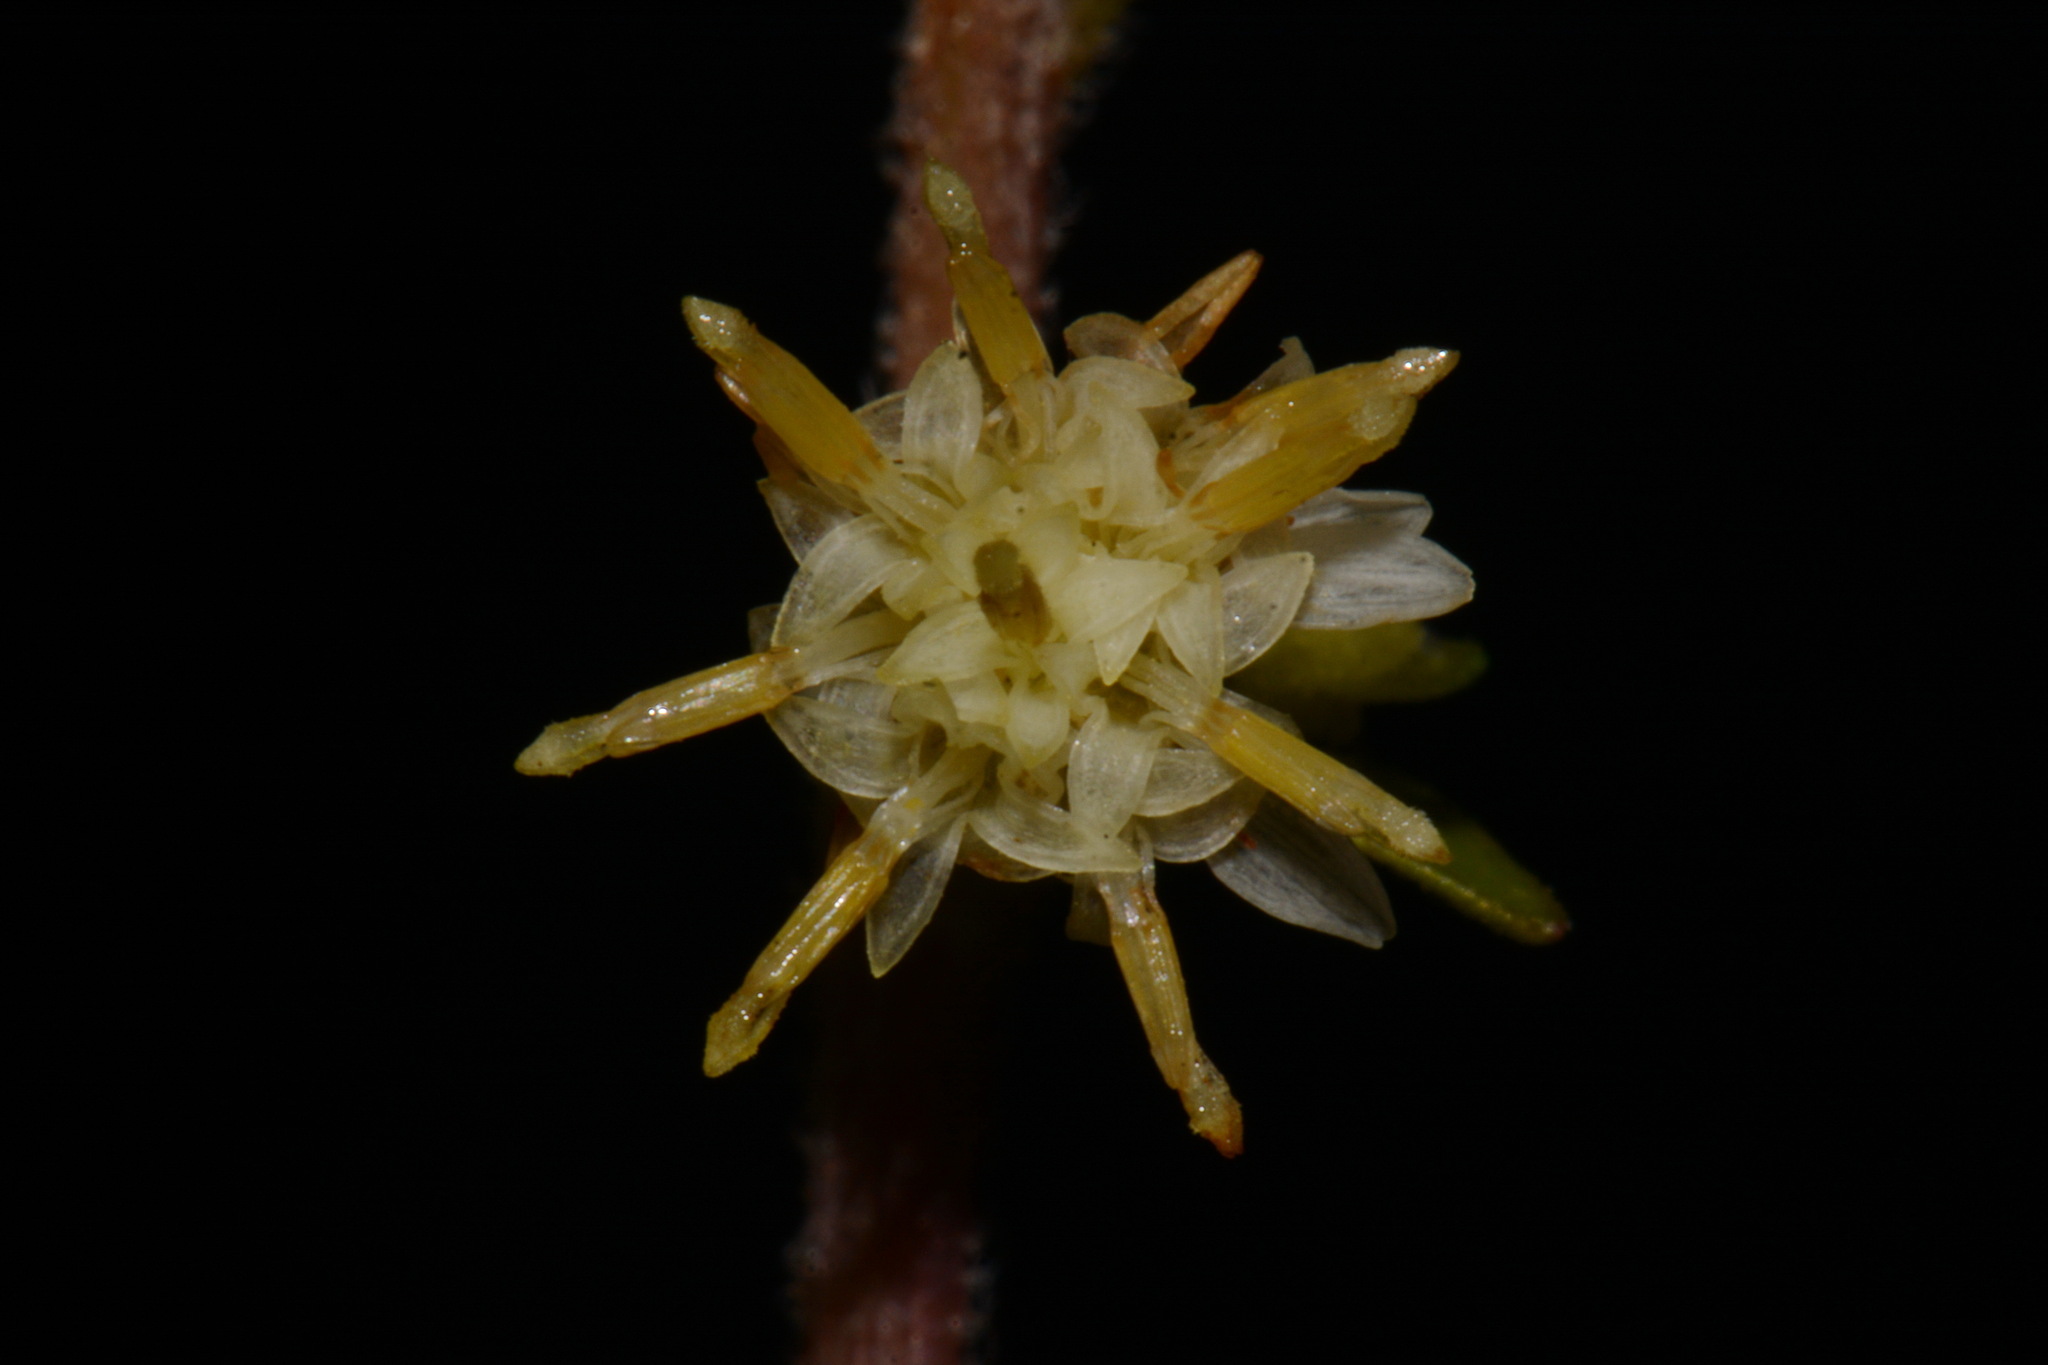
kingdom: Plantae
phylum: Tracheophyta
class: Magnoliopsida
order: Asterales
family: Asteraceae
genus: Solidago
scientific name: Solidago bicolor
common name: Silverrod
